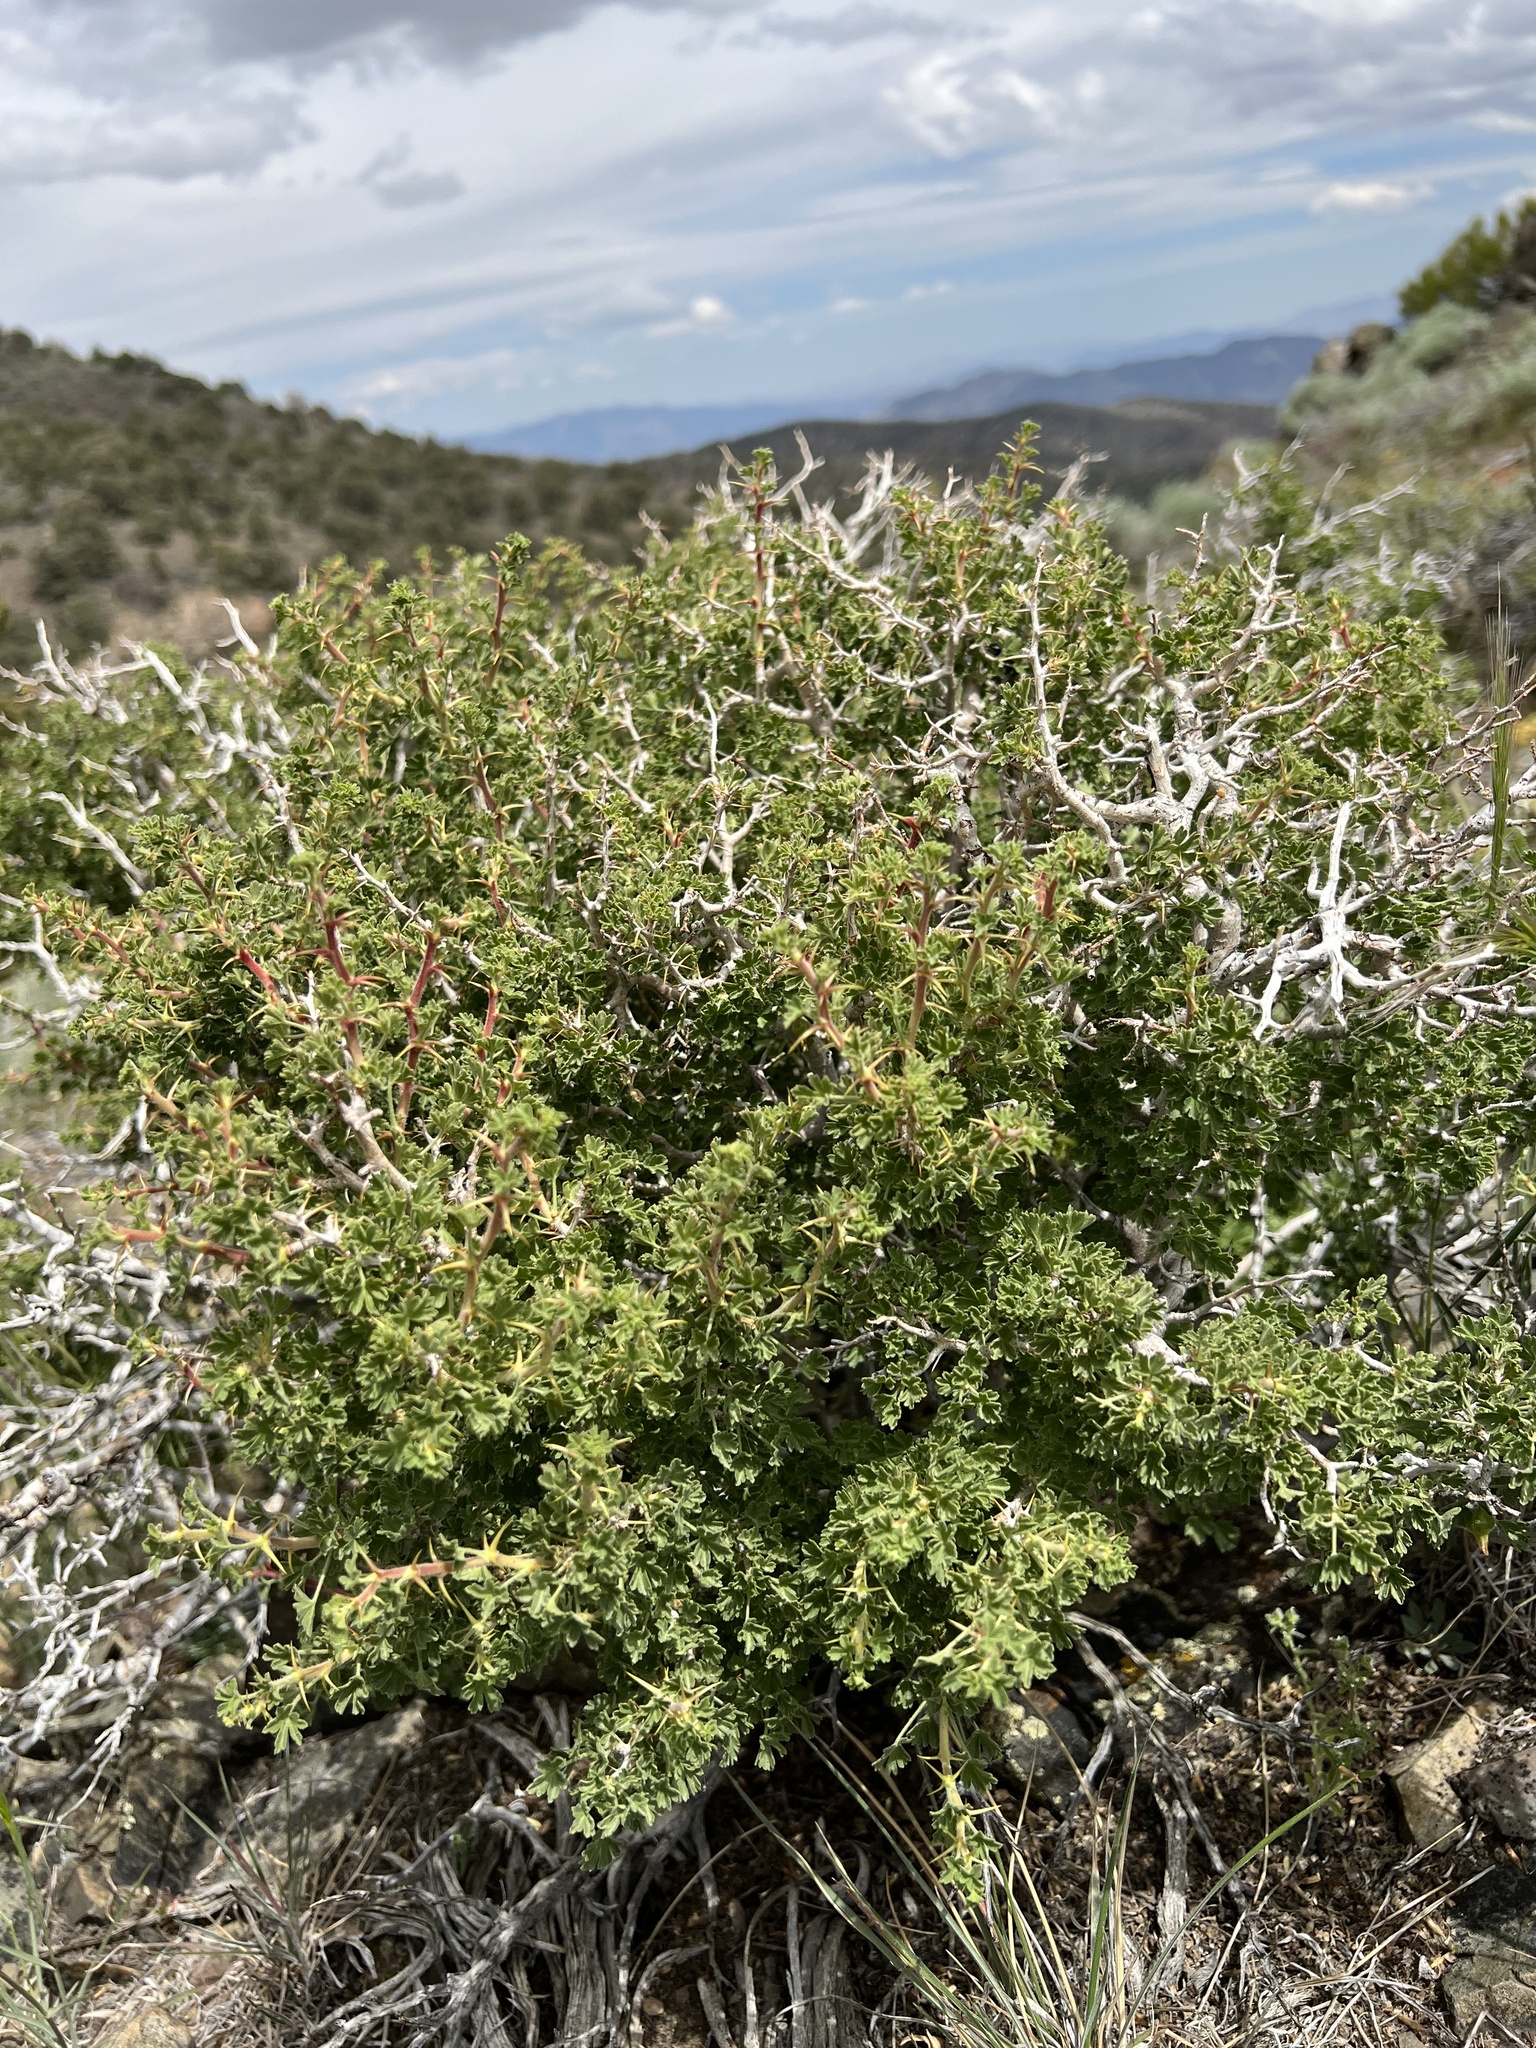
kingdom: Plantae
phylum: Tracheophyta
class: Magnoliopsida
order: Saxifragales
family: Grossulariaceae
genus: Ribes
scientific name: Ribes velutinum
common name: Desert gooseberry
